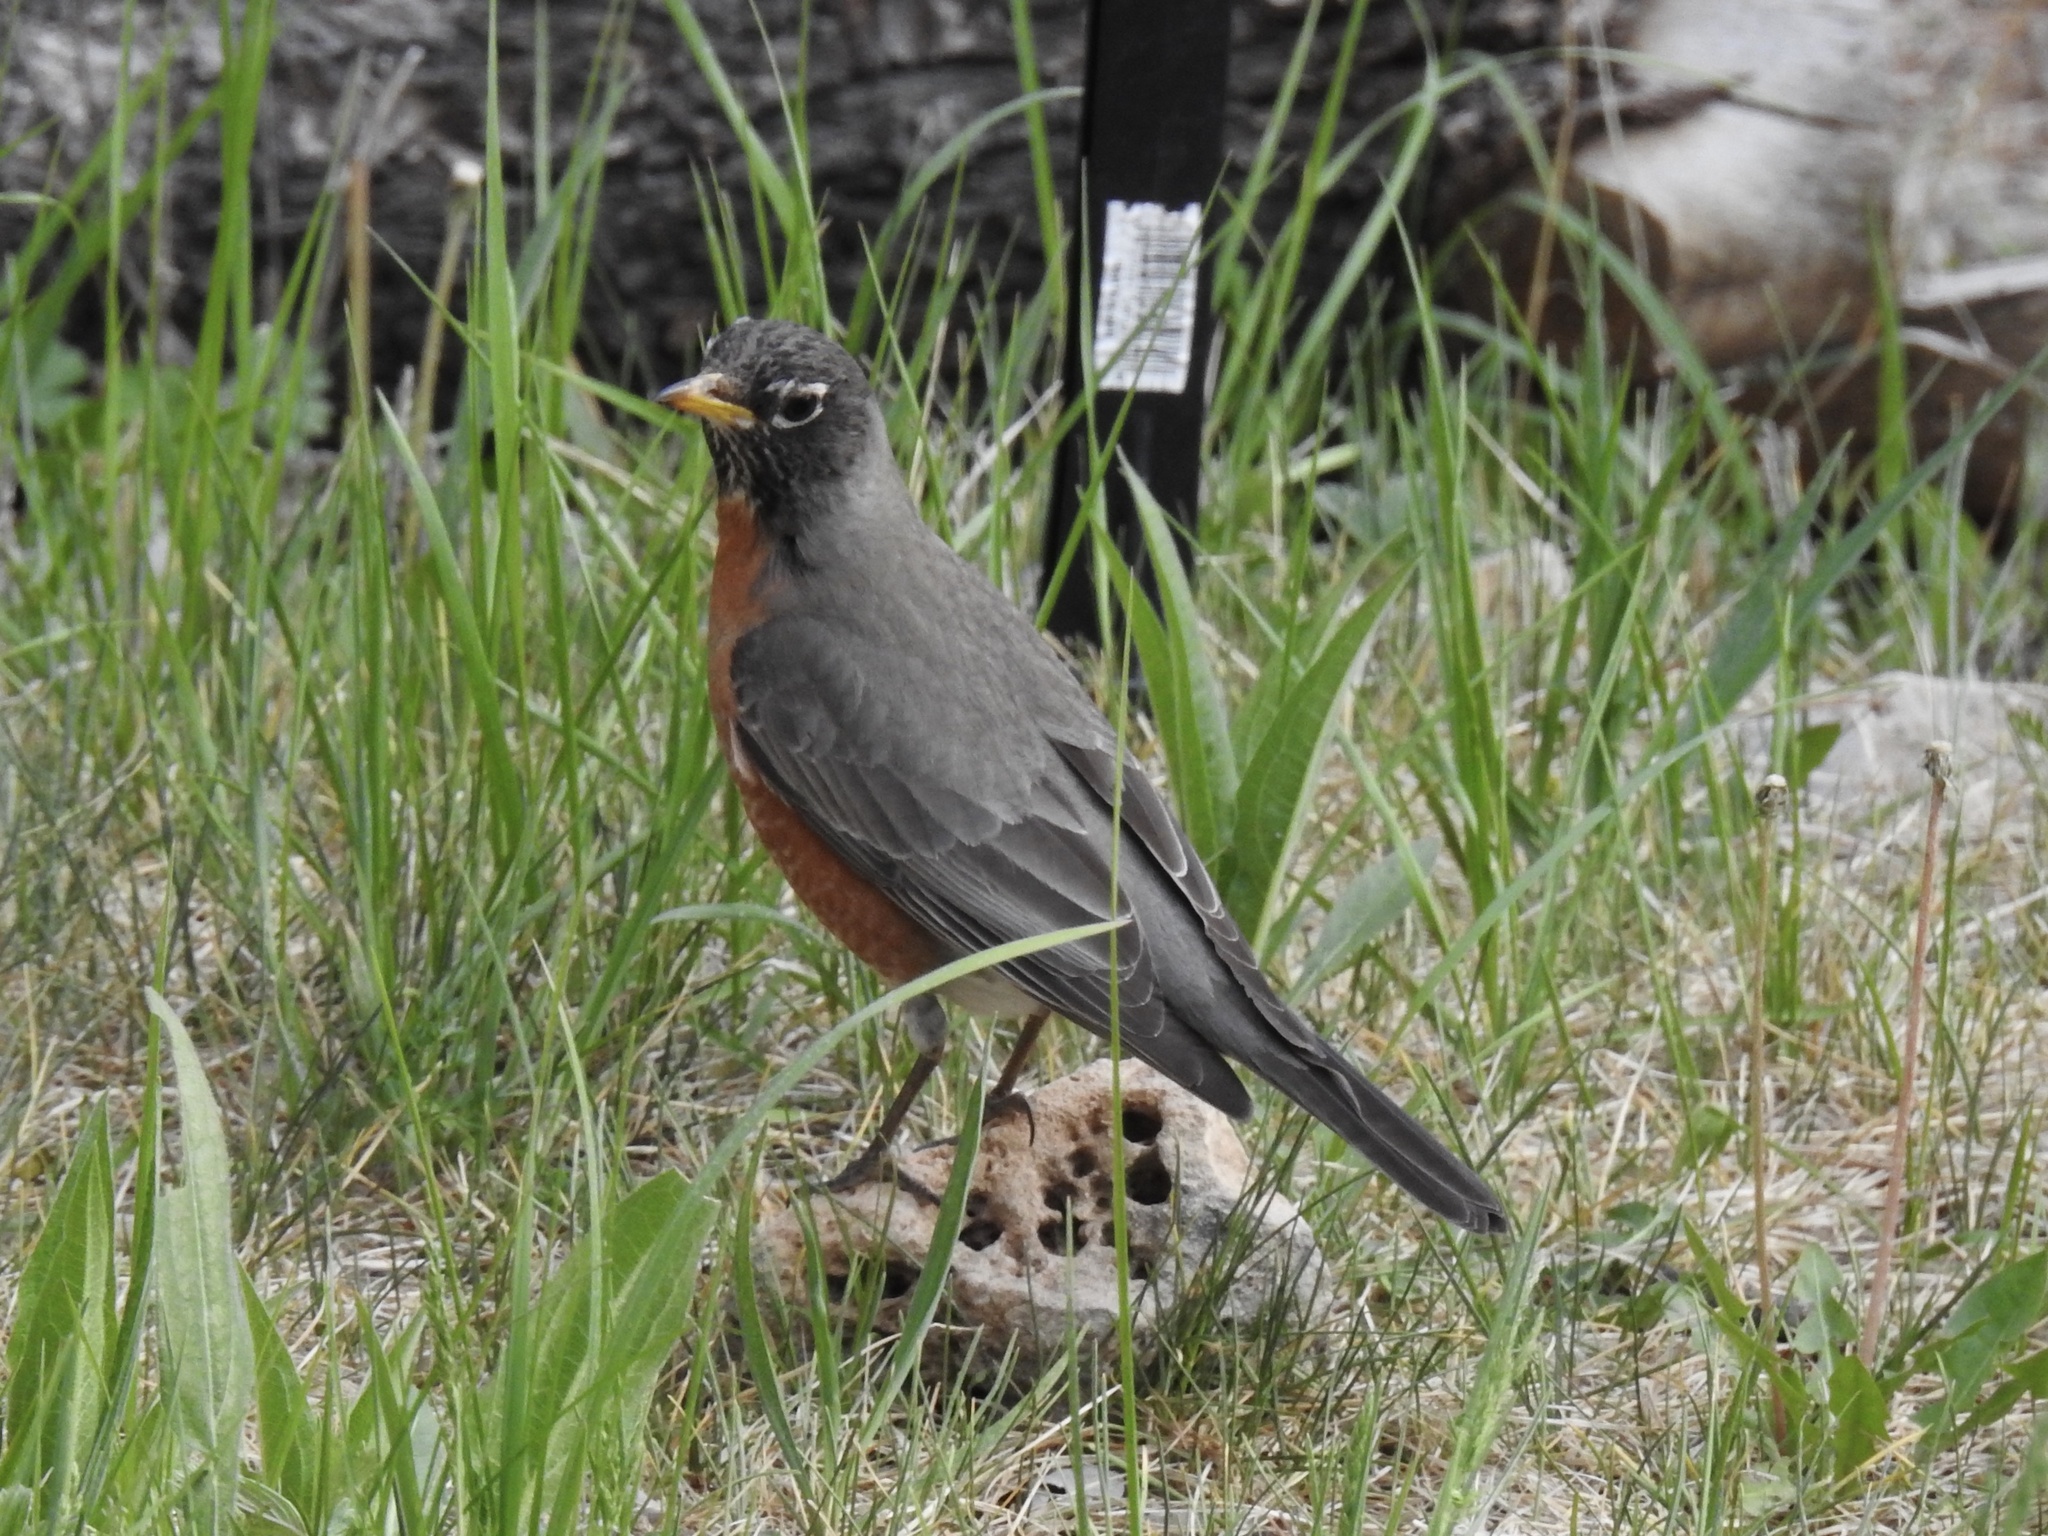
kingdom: Animalia
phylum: Chordata
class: Aves
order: Passeriformes
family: Turdidae
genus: Turdus
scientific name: Turdus migratorius
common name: American robin
